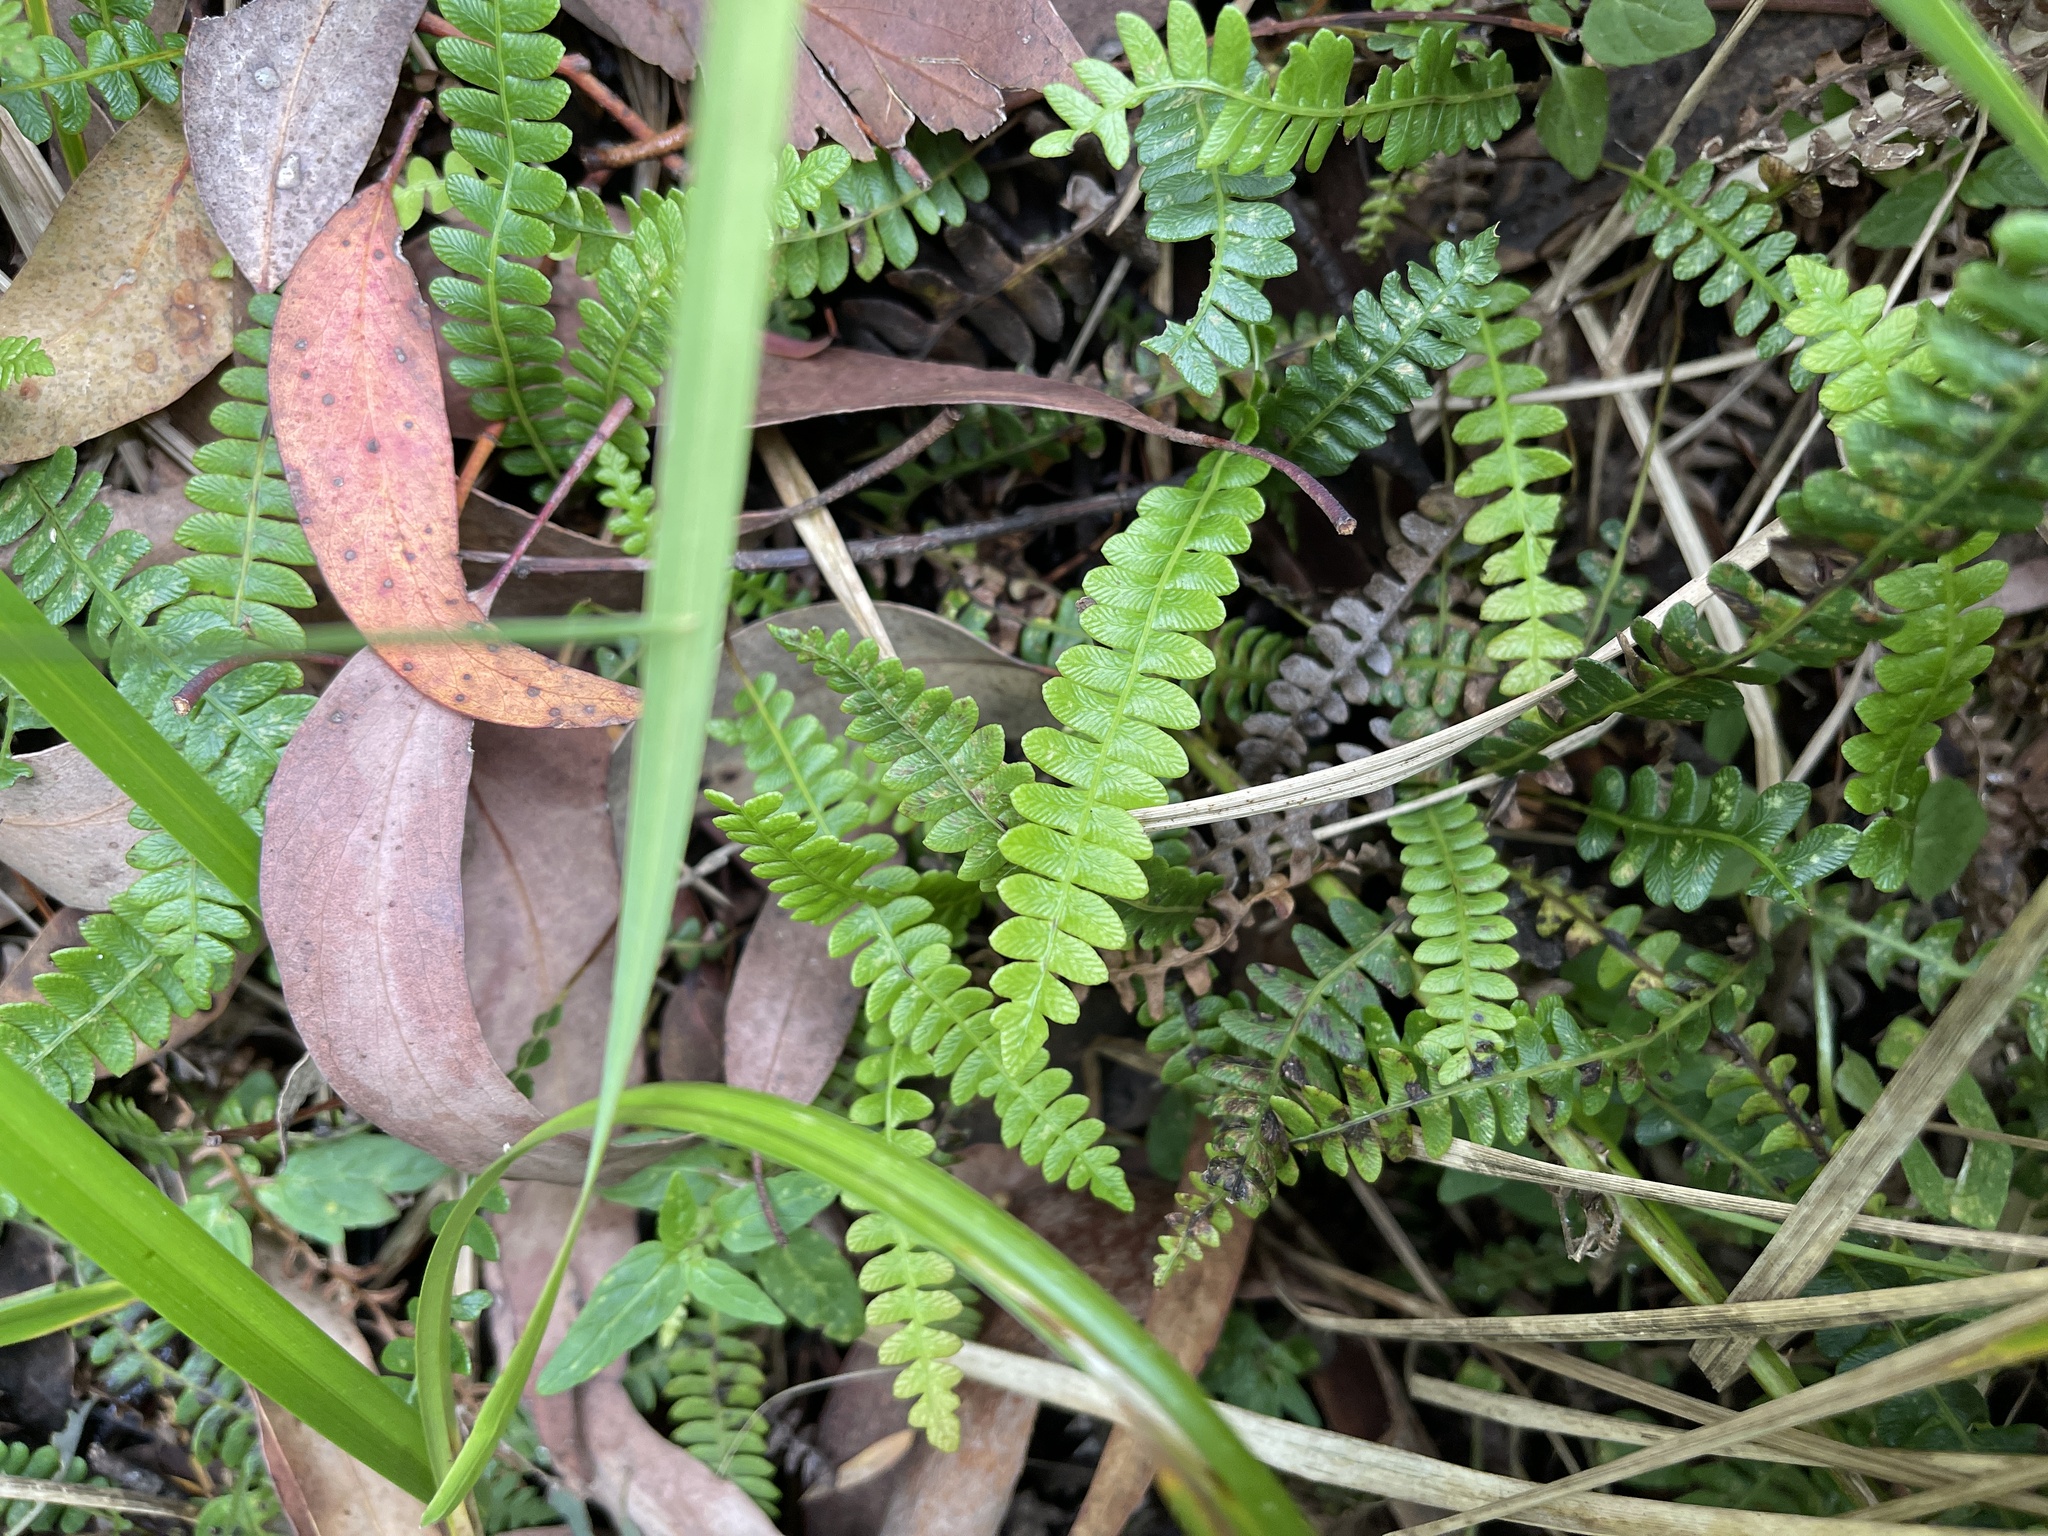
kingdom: Plantae
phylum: Tracheophyta
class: Polypodiopsida
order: Polypodiales
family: Blechnaceae
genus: Austroblechnum
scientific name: Austroblechnum penna-marina
